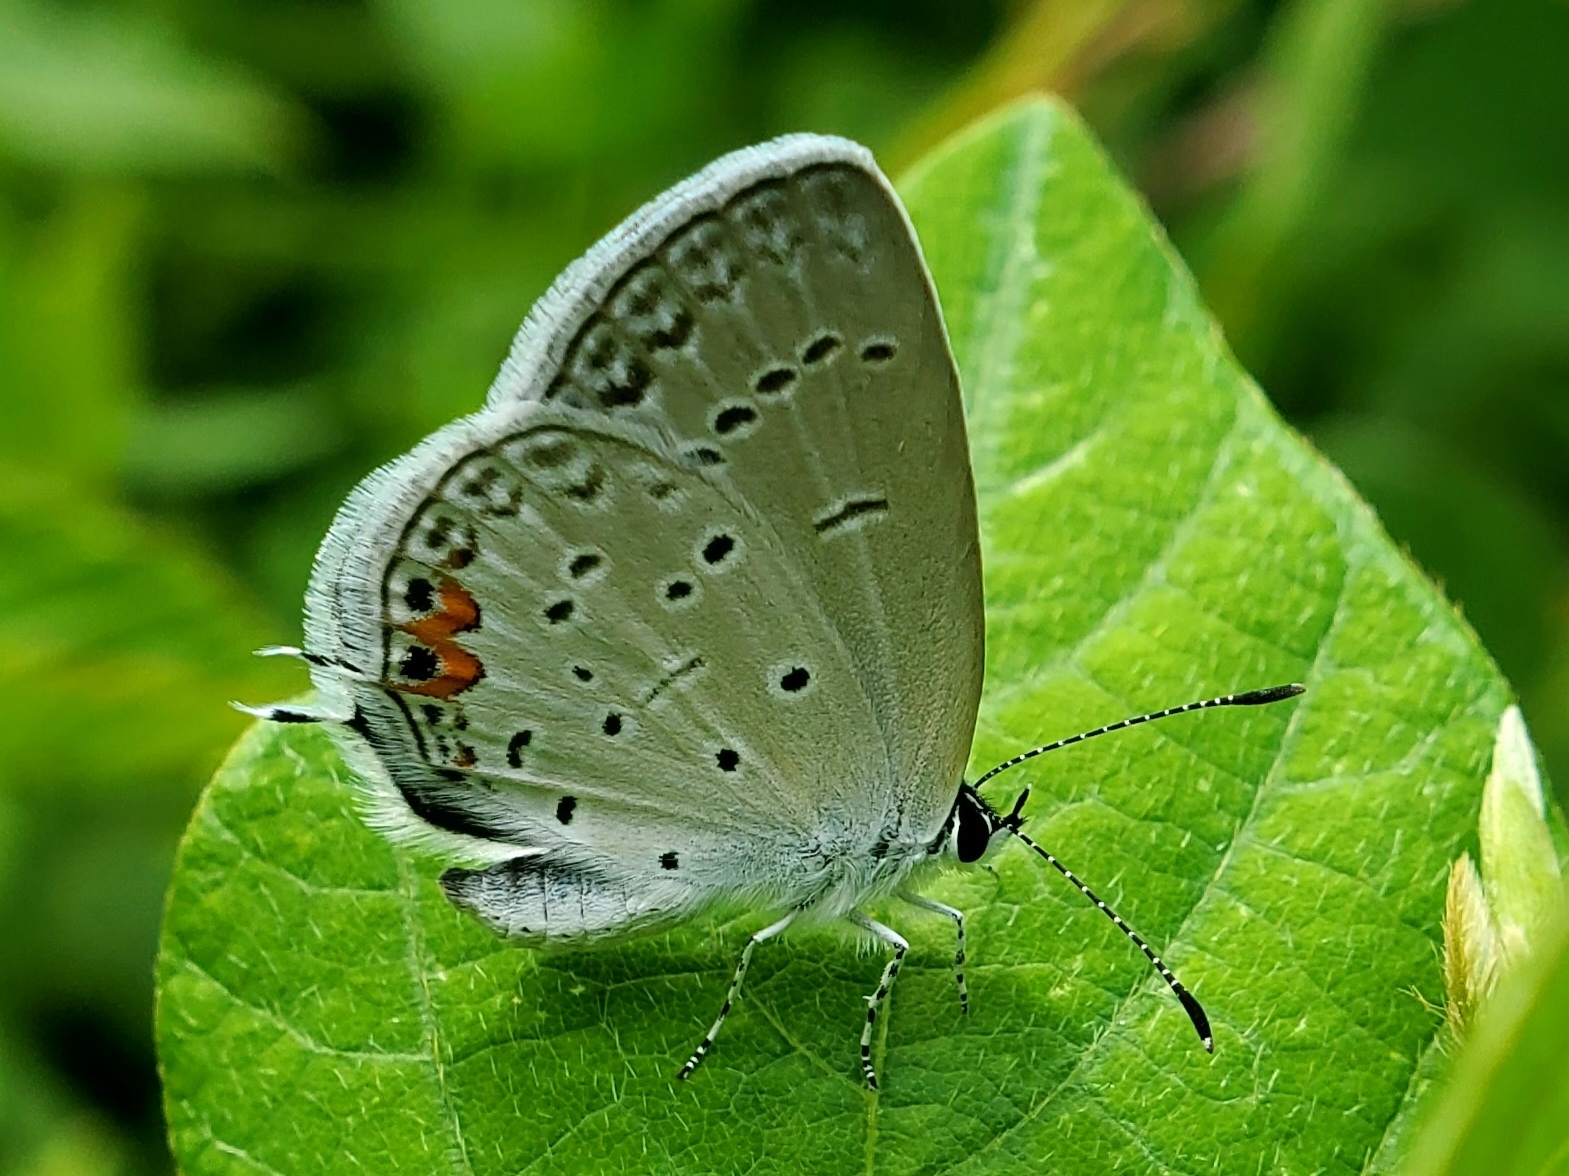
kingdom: Animalia
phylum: Arthropoda
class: Insecta
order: Lepidoptera
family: Lycaenidae
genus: Elkalyce
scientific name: Elkalyce comyntas
